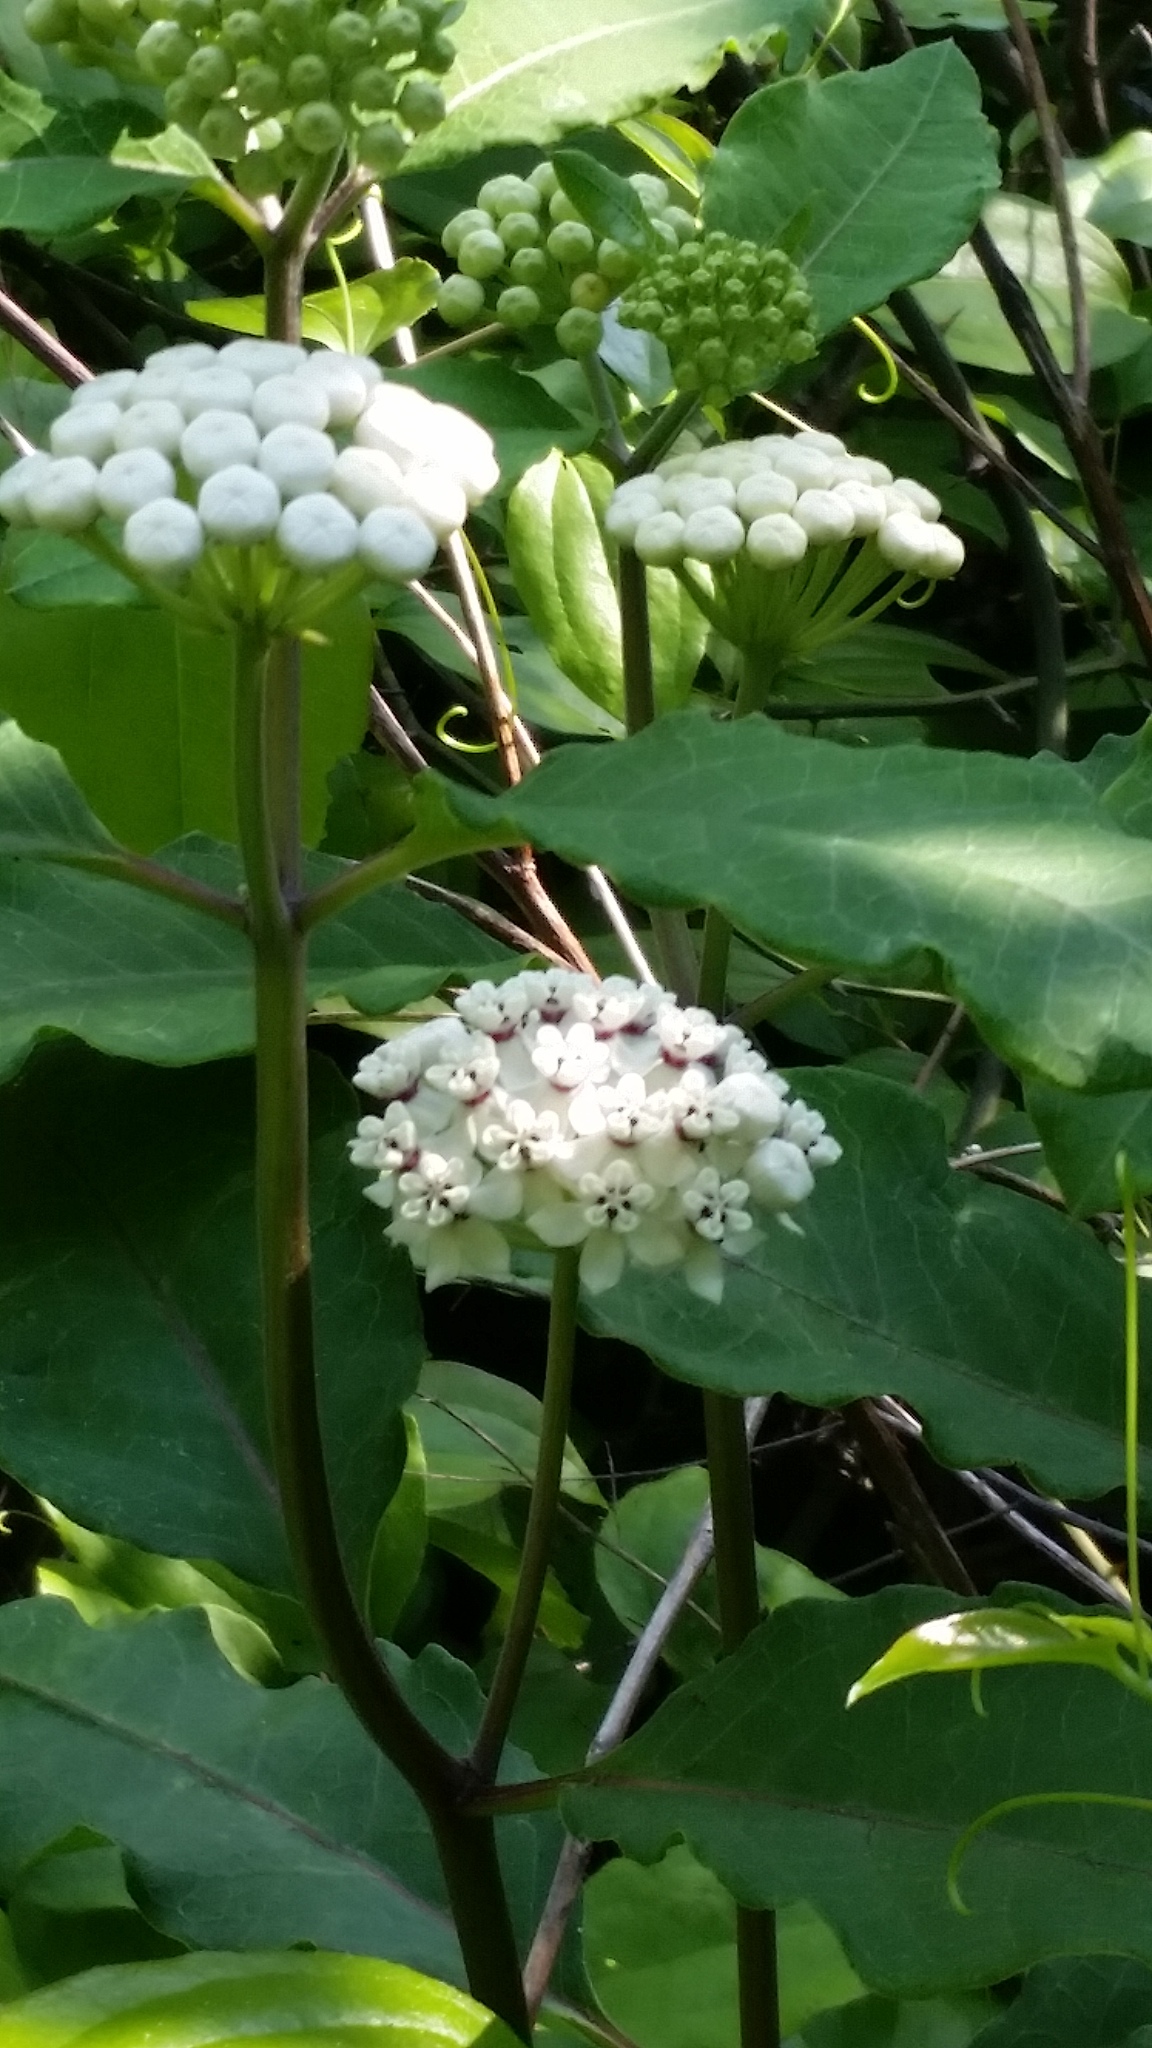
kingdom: Plantae
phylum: Tracheophyta
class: Magnoliopsida
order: Gentianales
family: Apocynaceae
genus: Asclepias
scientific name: Asclepias variegata
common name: Variegated milkweed
